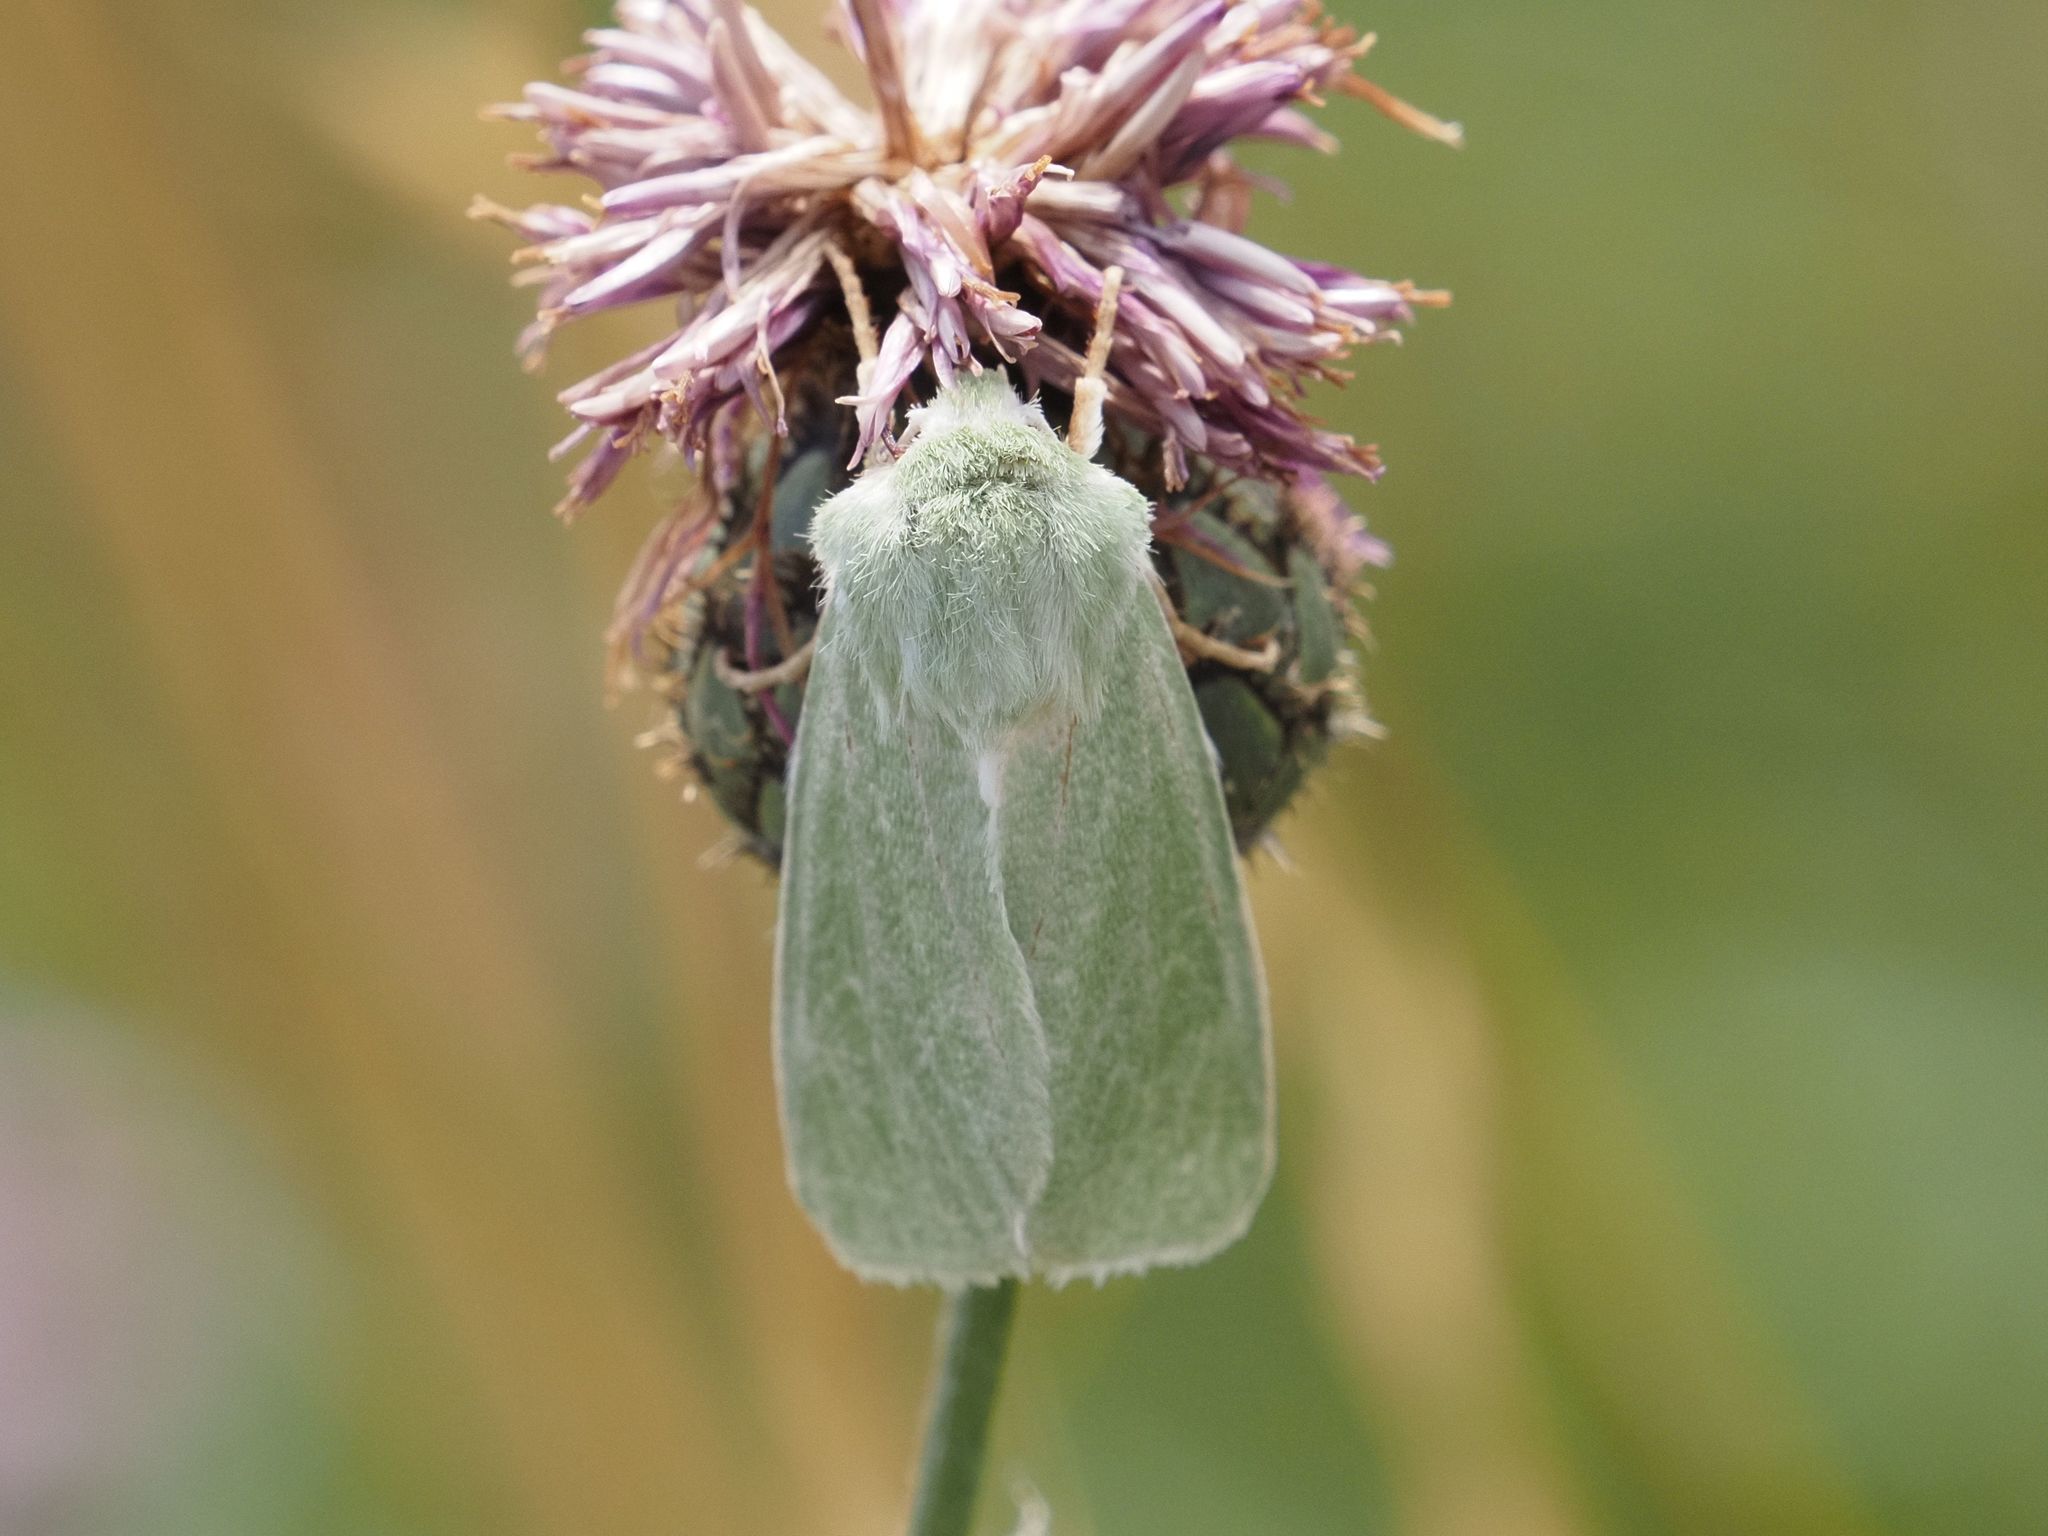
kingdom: Animalia
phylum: Arthropoda
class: Insecta
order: Lepidoptera
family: Noctuidae
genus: Calamia
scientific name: Calamia tridens
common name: Burren green
